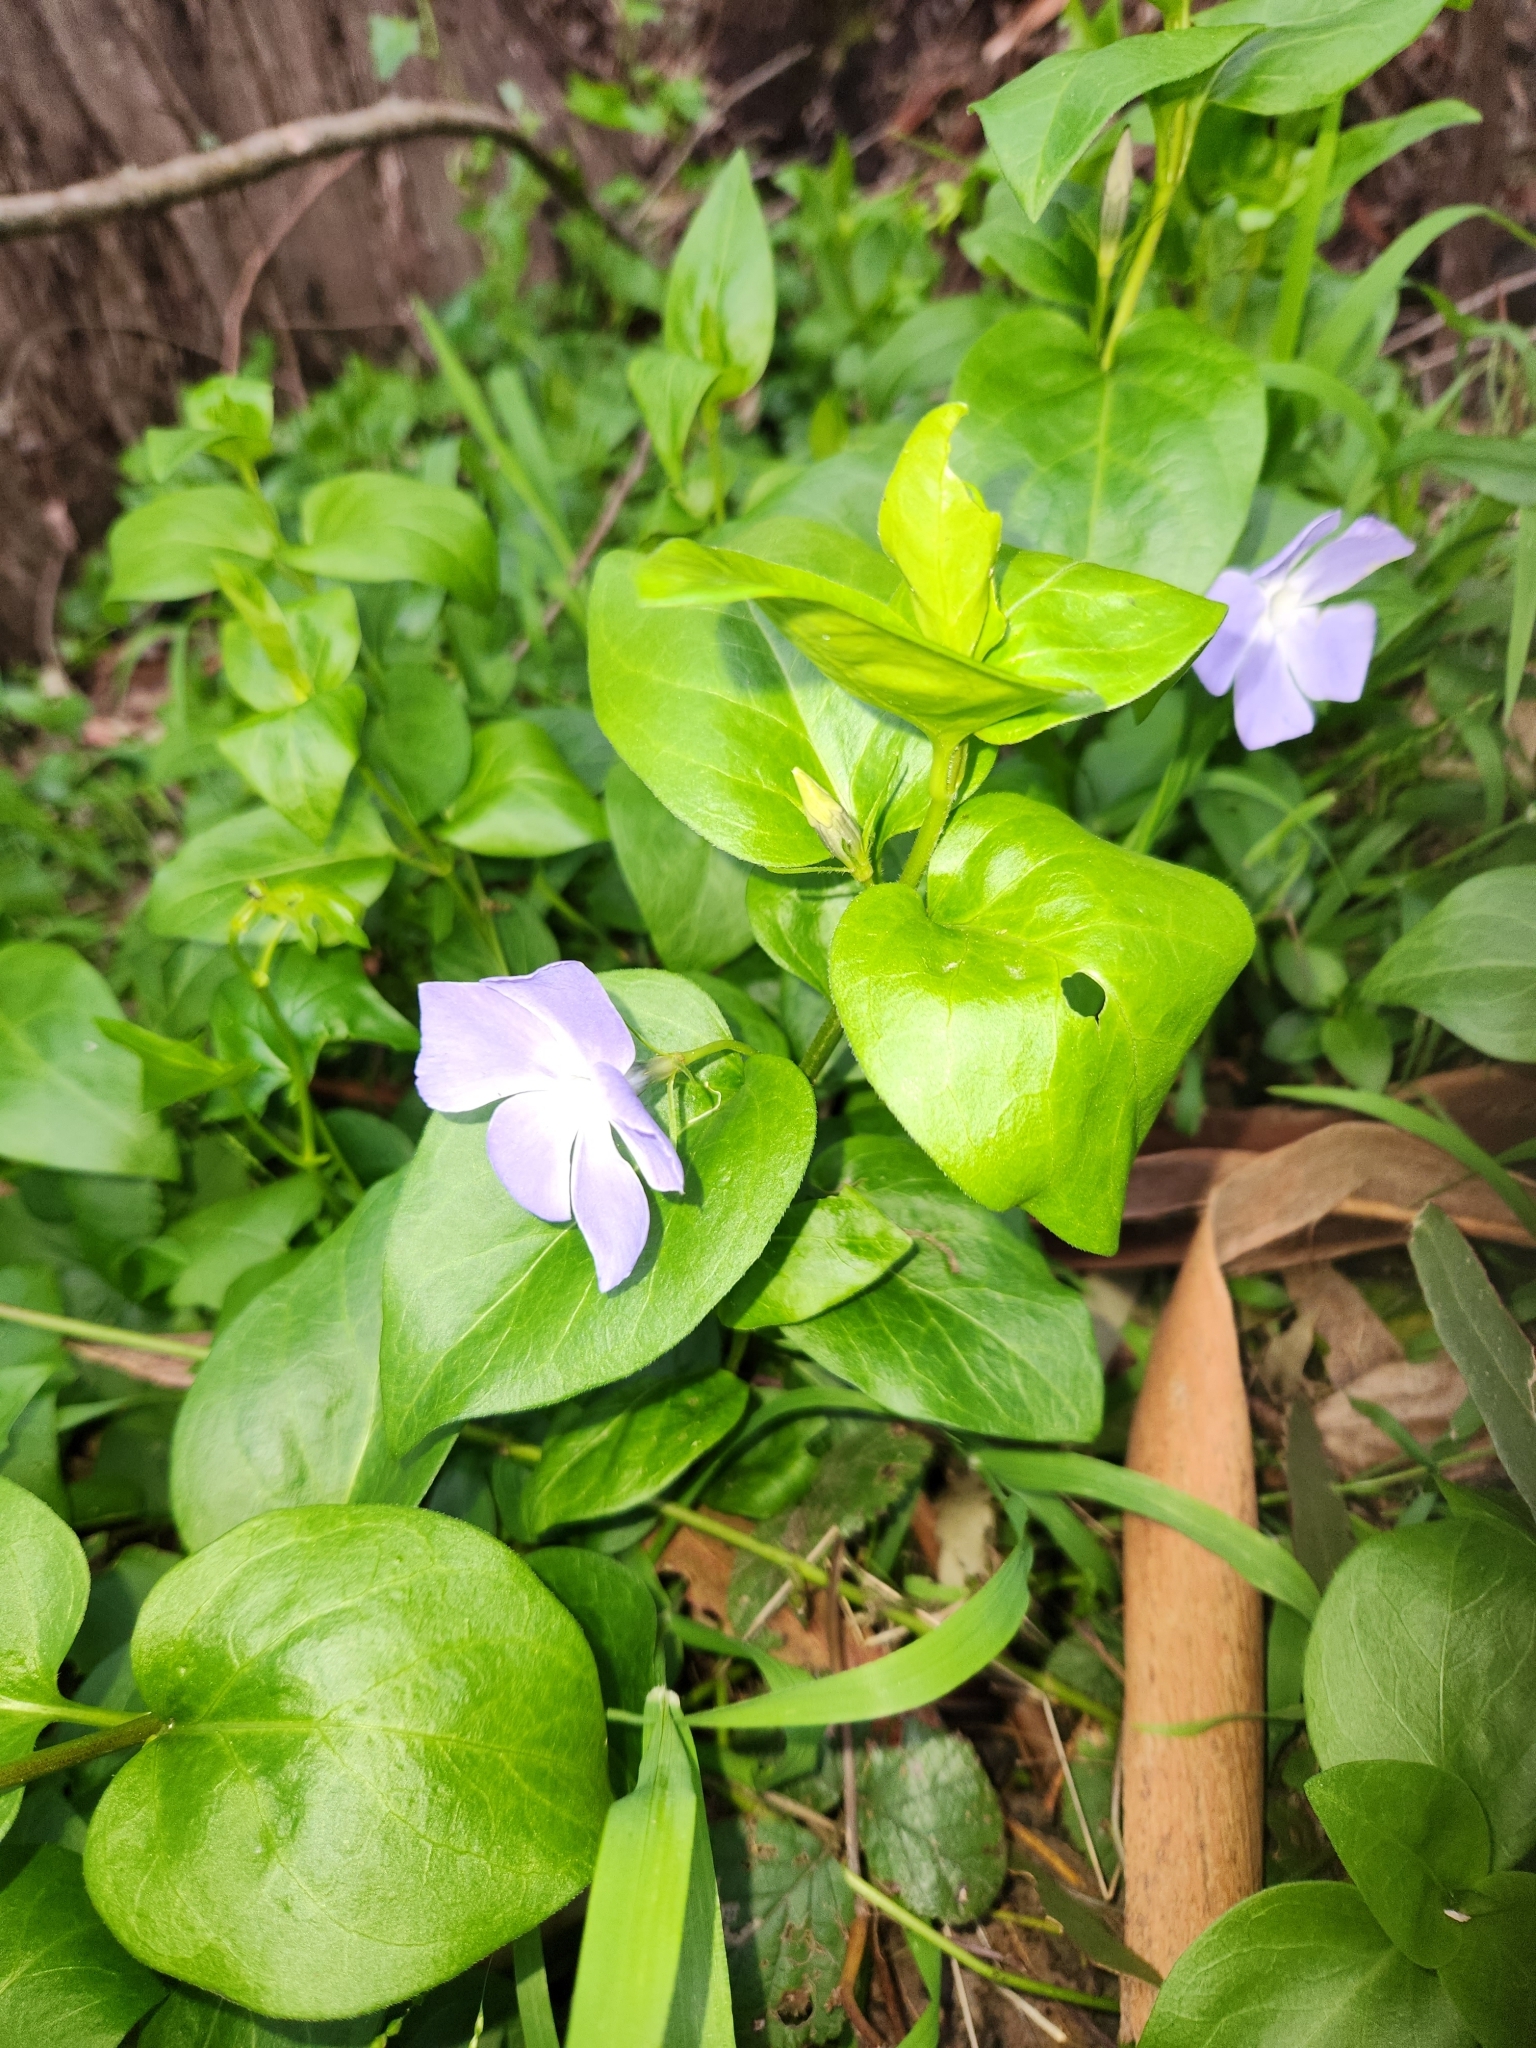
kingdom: Plantae
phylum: Tracheophyta
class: Magnoliopsida
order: Gentianales
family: Apocynaceae
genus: Vinca
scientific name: Vinca major
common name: Greater periwinkle
